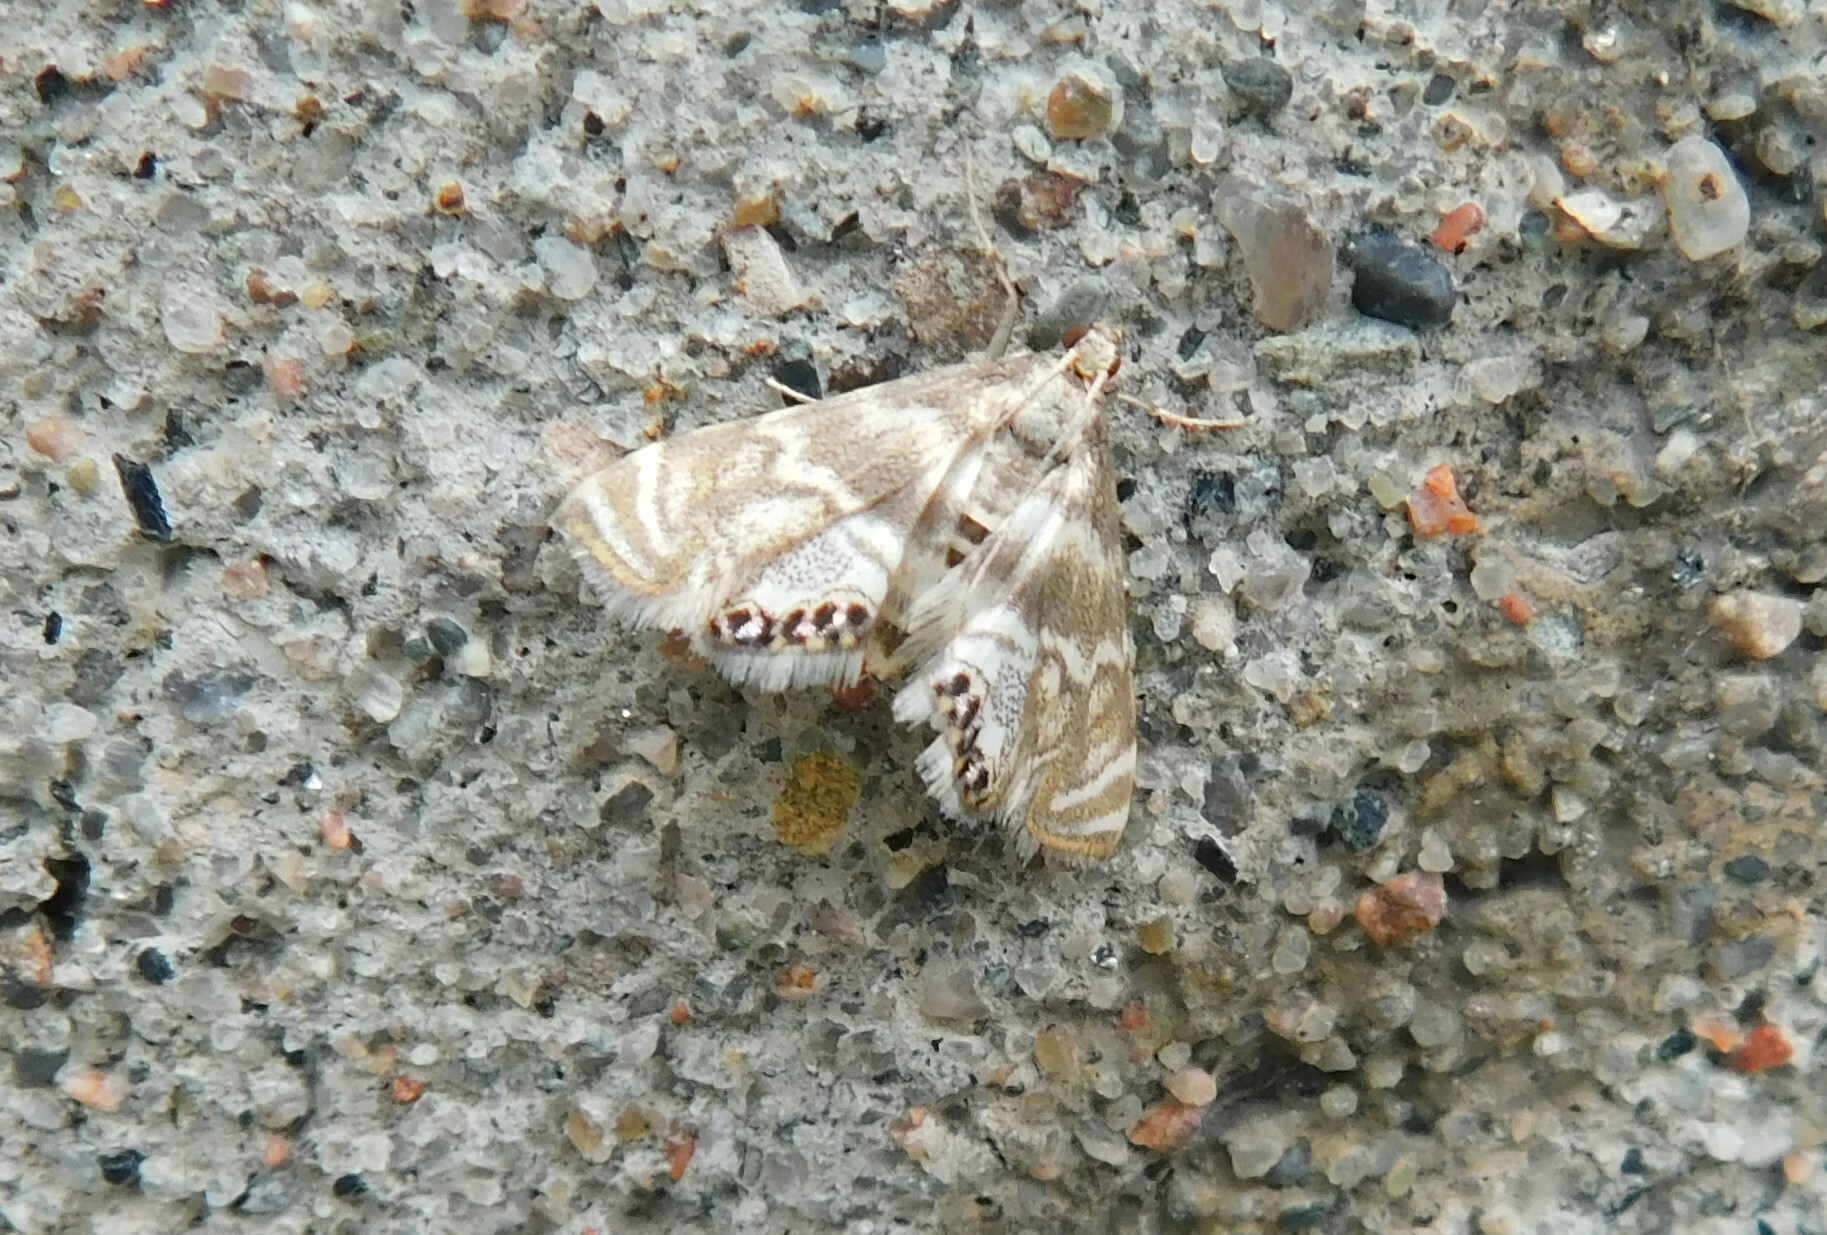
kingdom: Animalia
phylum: Arthropoda
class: Insecta
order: Lepidoptera
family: Crambidae
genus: Petrophila
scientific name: Petrophila canadensis
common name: Canadian petrophila
